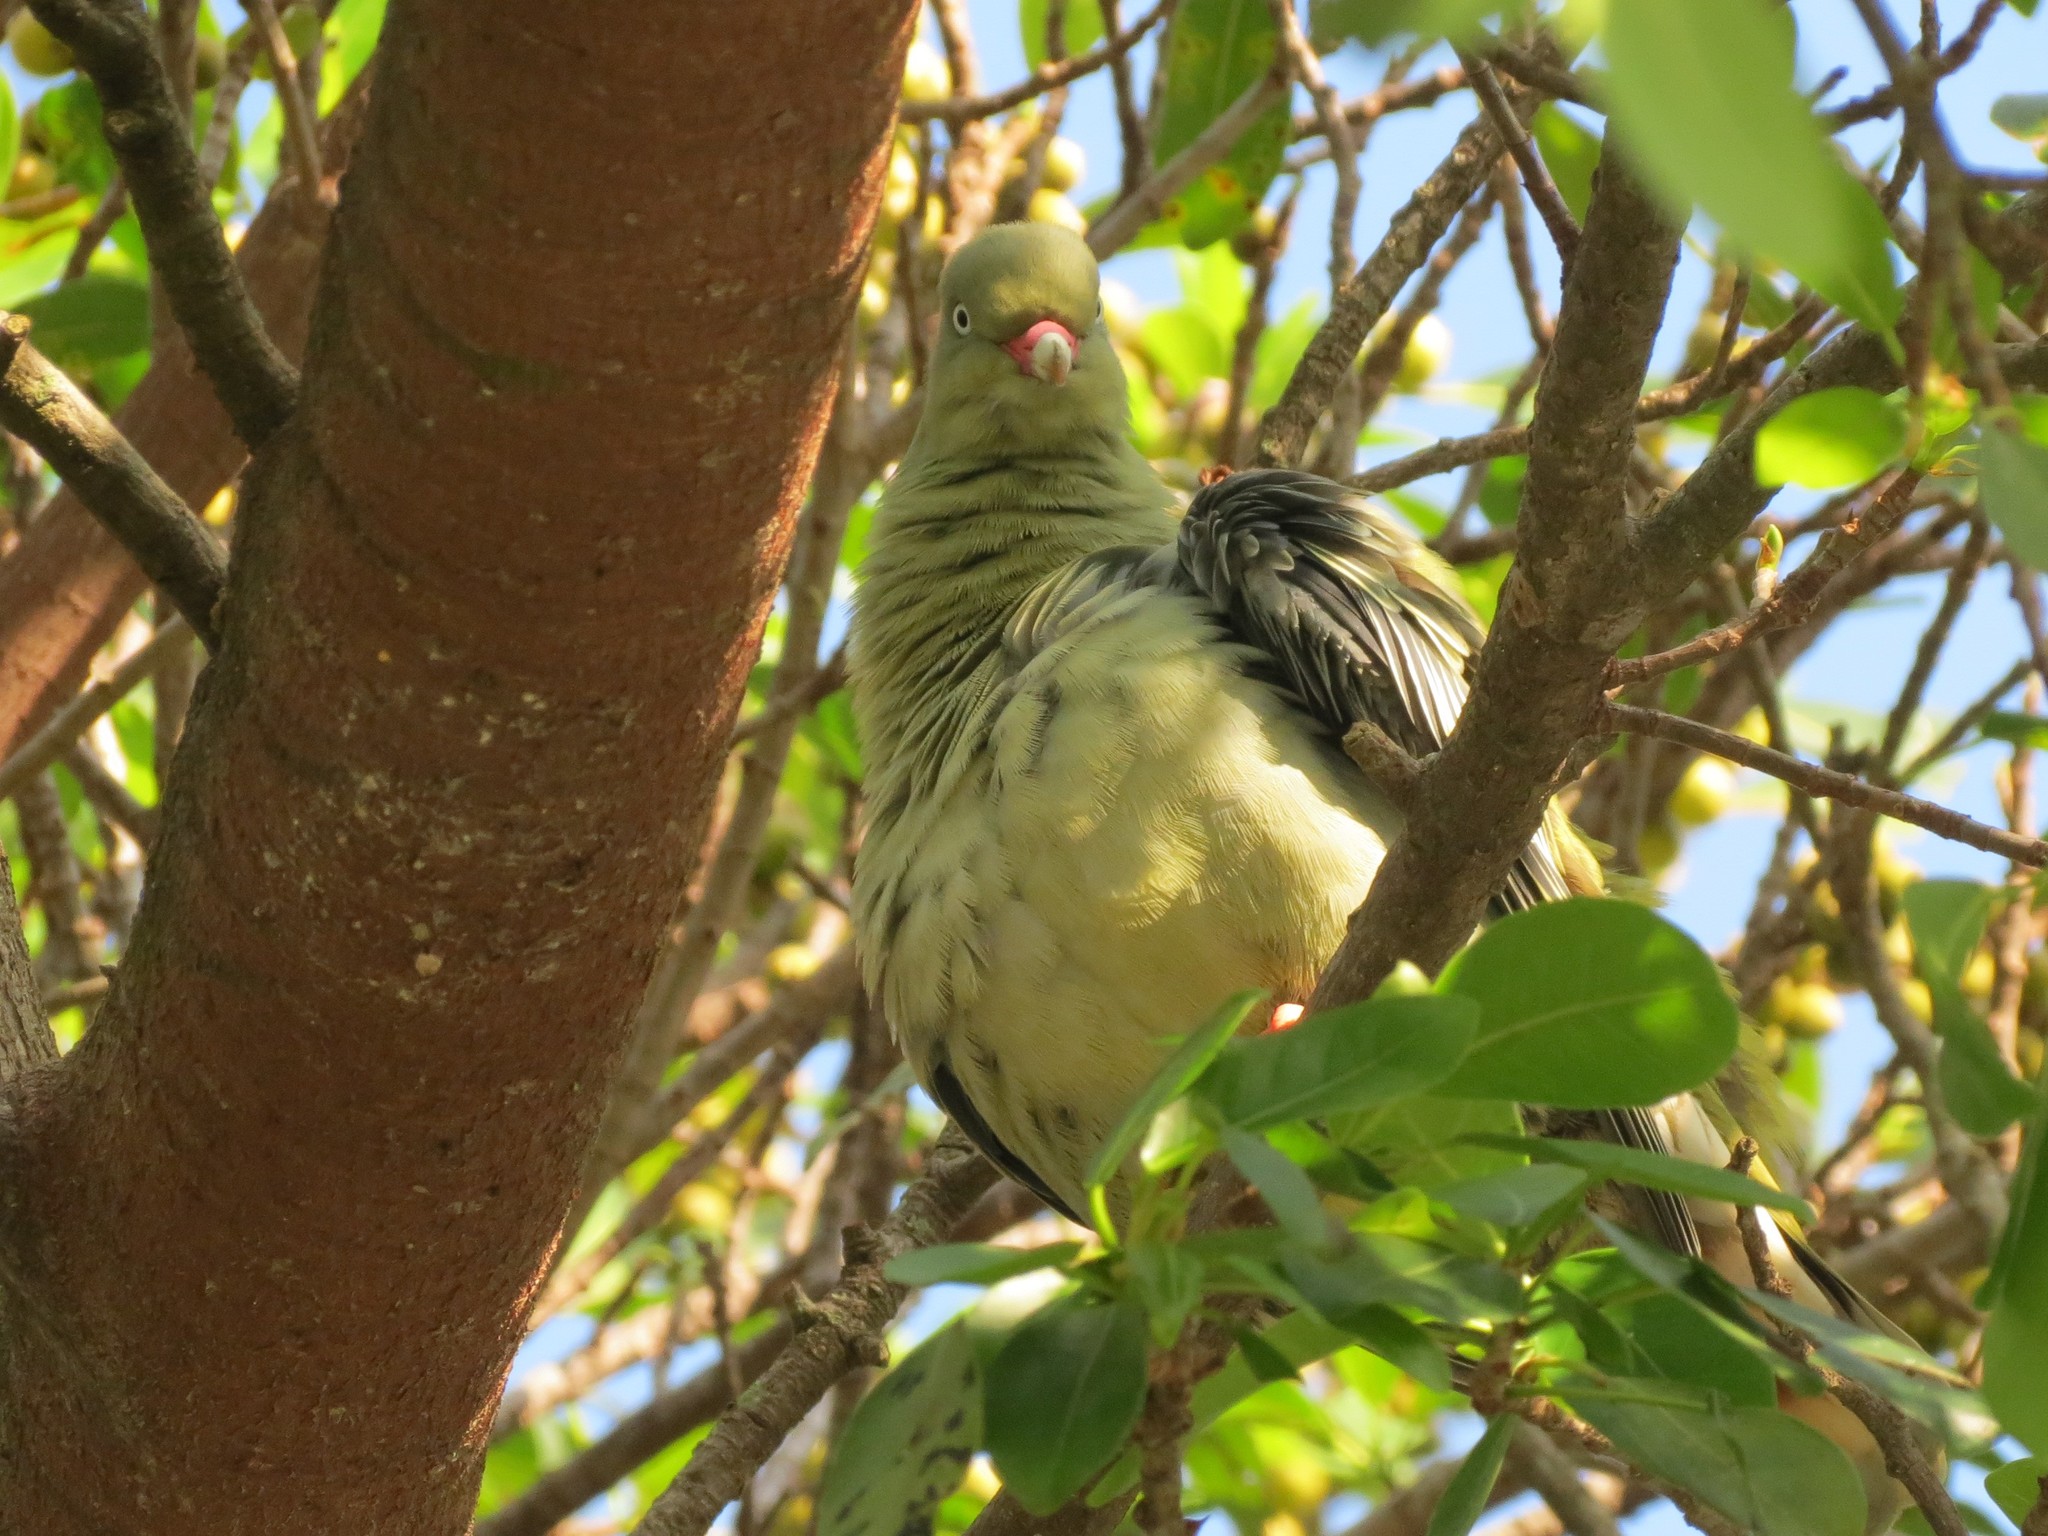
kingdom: Animalia
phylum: Chordata
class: Aves
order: Columbiformes
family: Columbidae
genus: Treron
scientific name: Treron calvus
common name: African green pigeon
